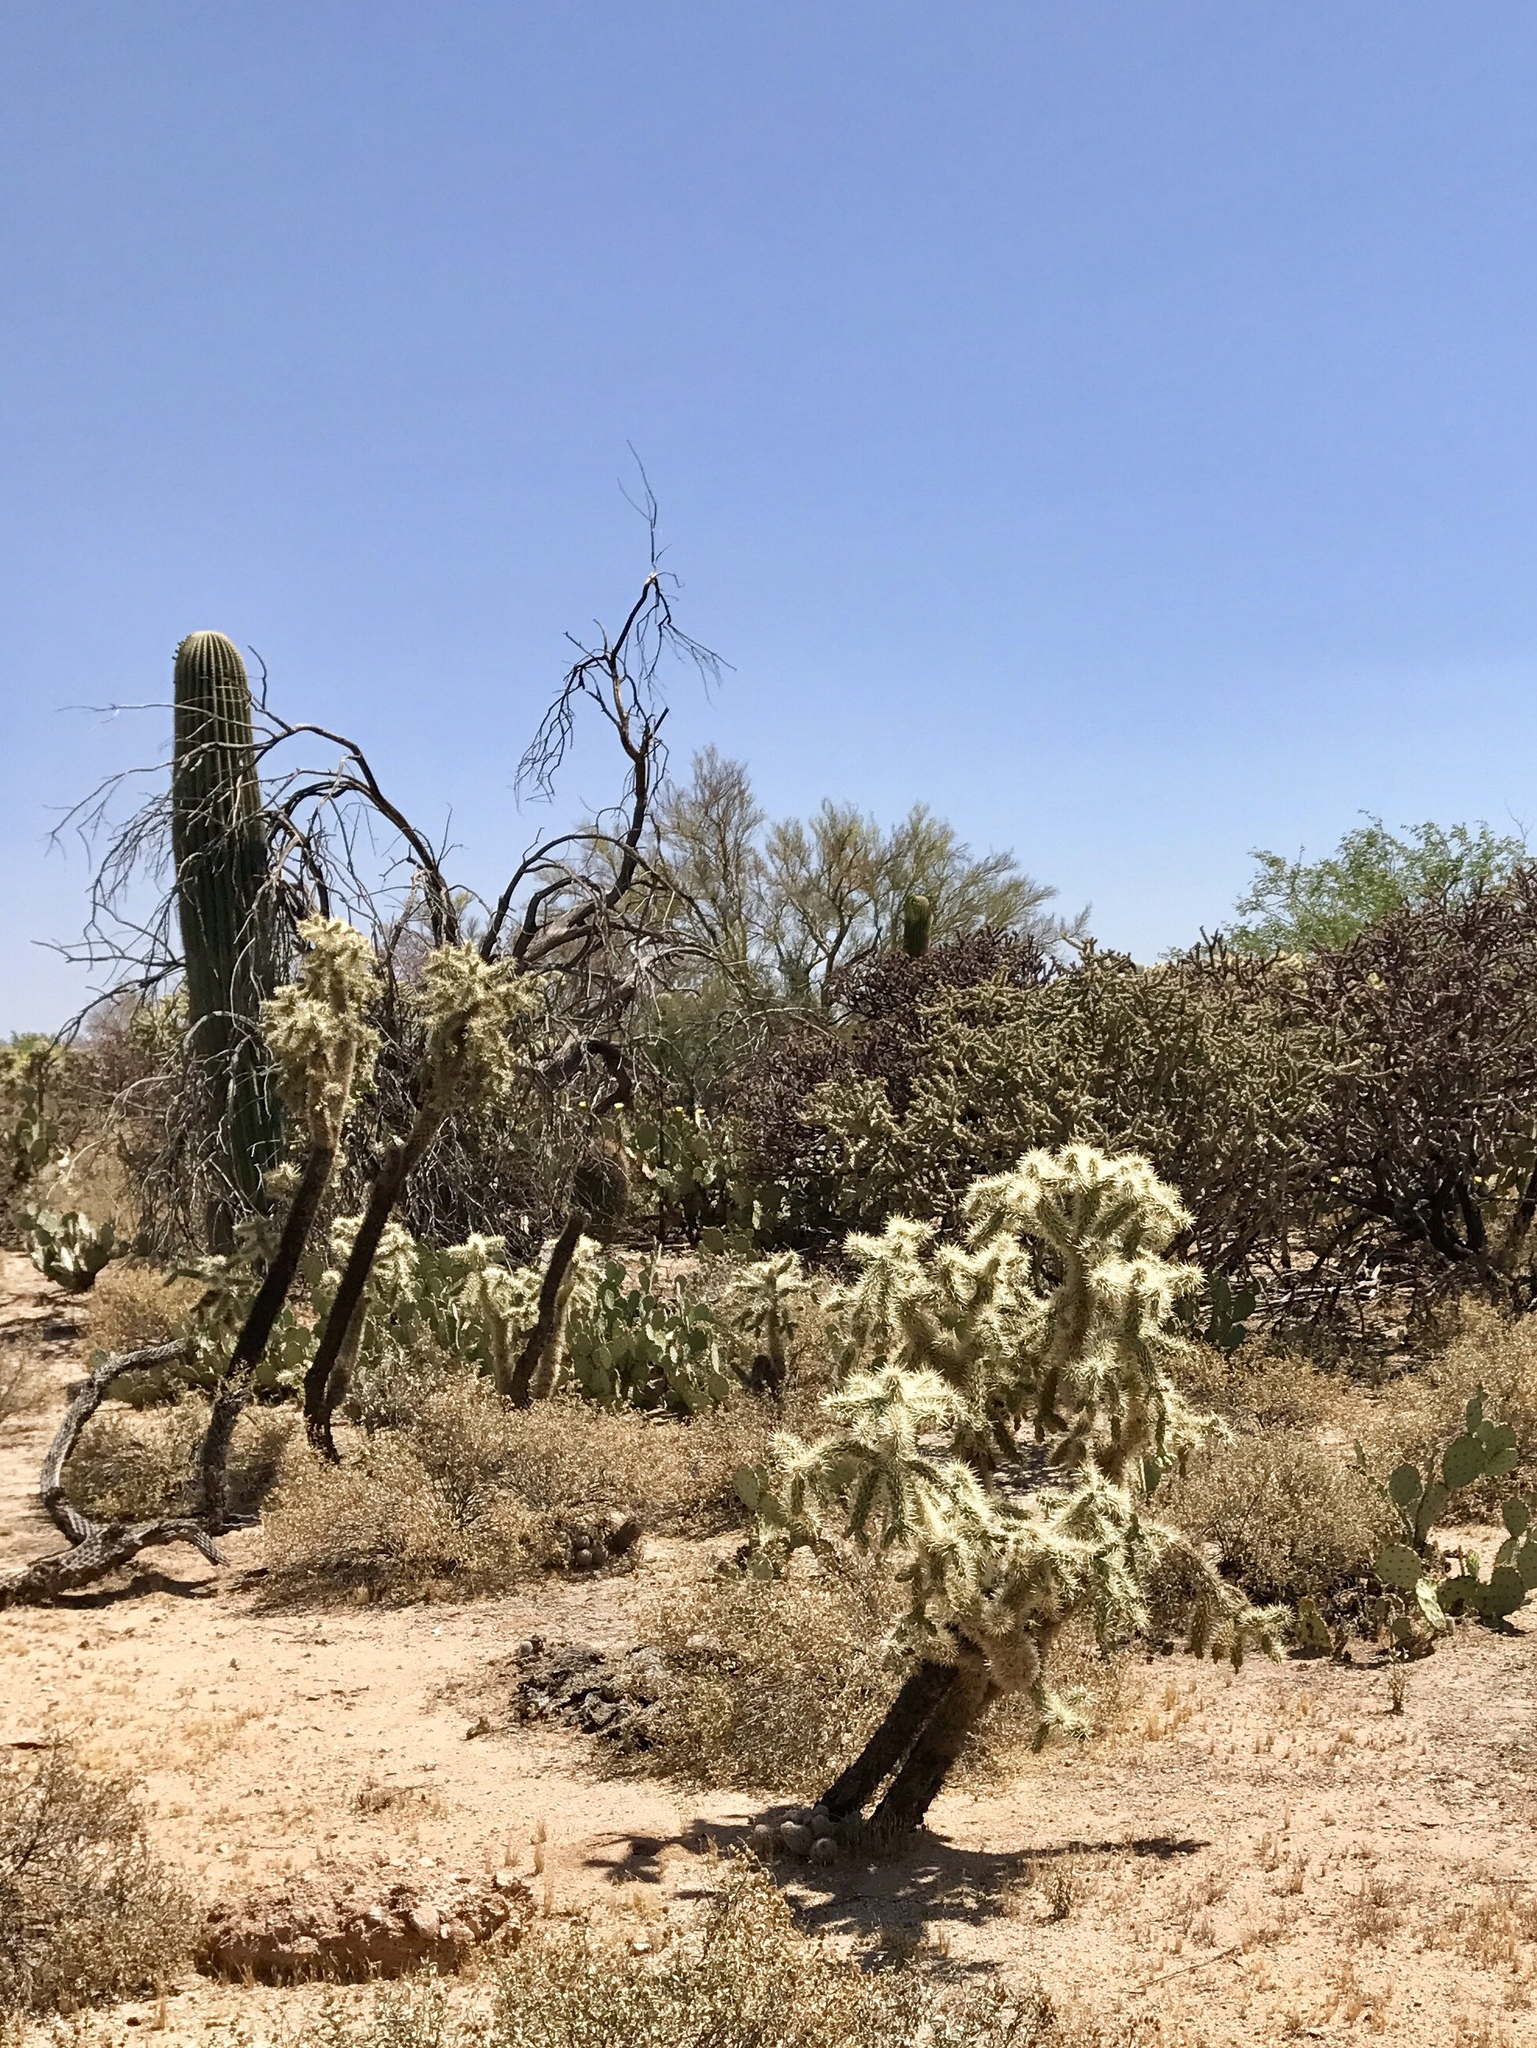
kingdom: Plantae
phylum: Tracheophyta
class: Magnoliopsida
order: Caryophyllales
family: Cactaceae
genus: Cylindropuntia
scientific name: Cylindropuntia fulgida
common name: Jumping cholla
